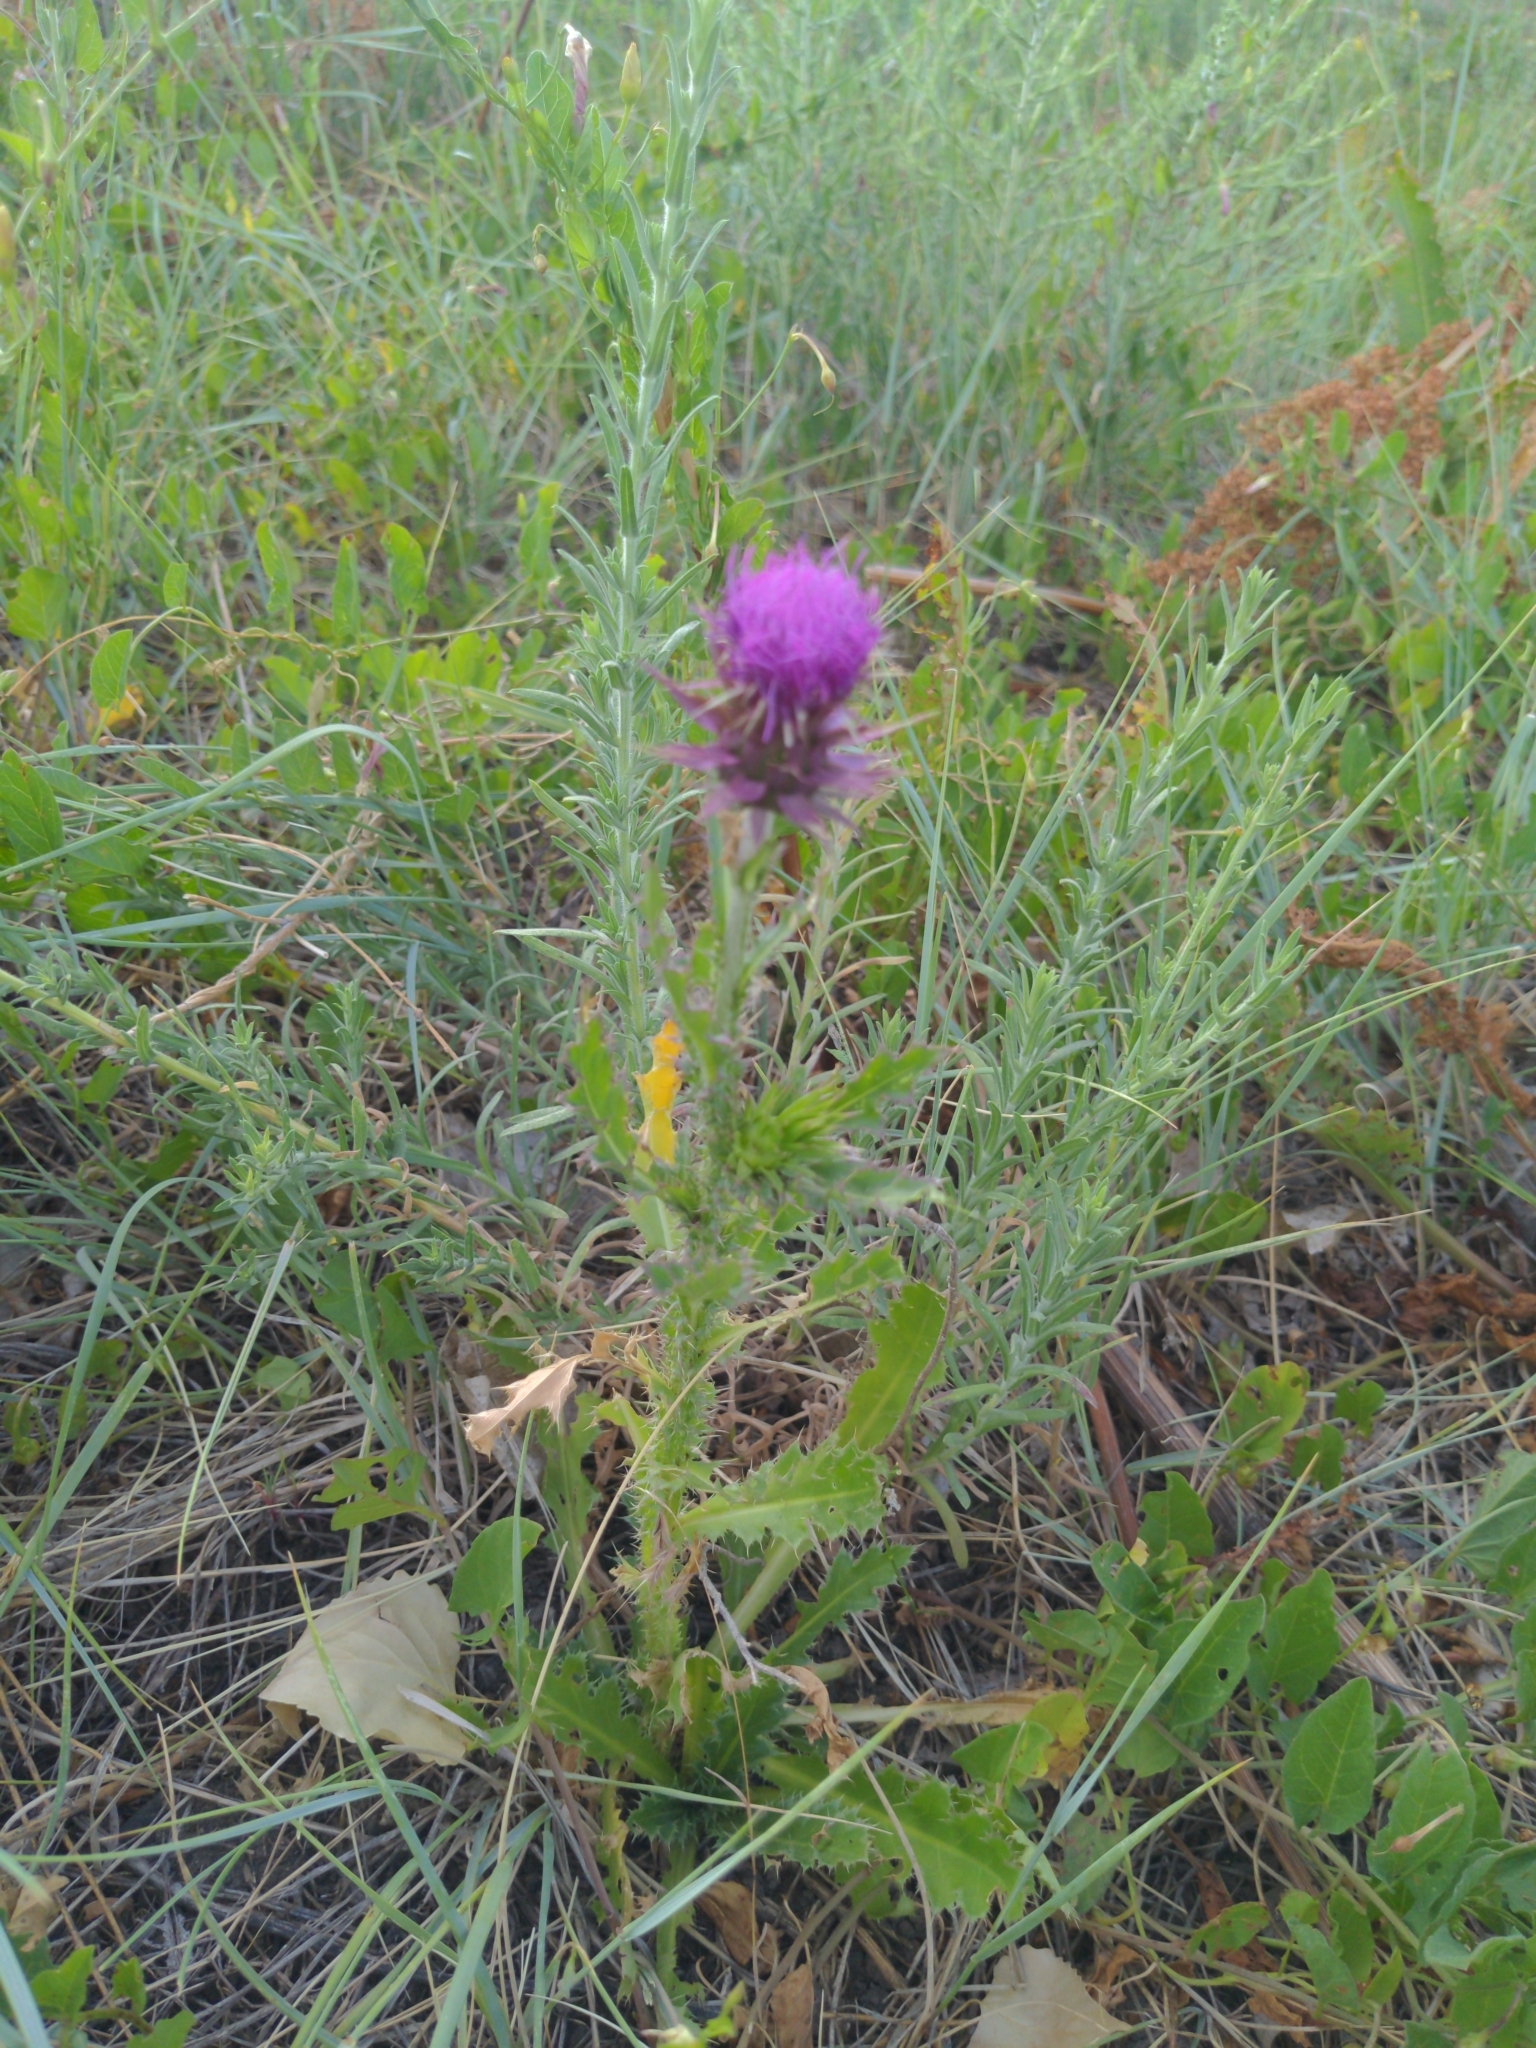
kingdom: Plantae
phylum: Tracheophyta
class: Magnoliopsida
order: Asterales
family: Asteraceae
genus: Carduus
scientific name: Carduus nutans
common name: Musk thistle
